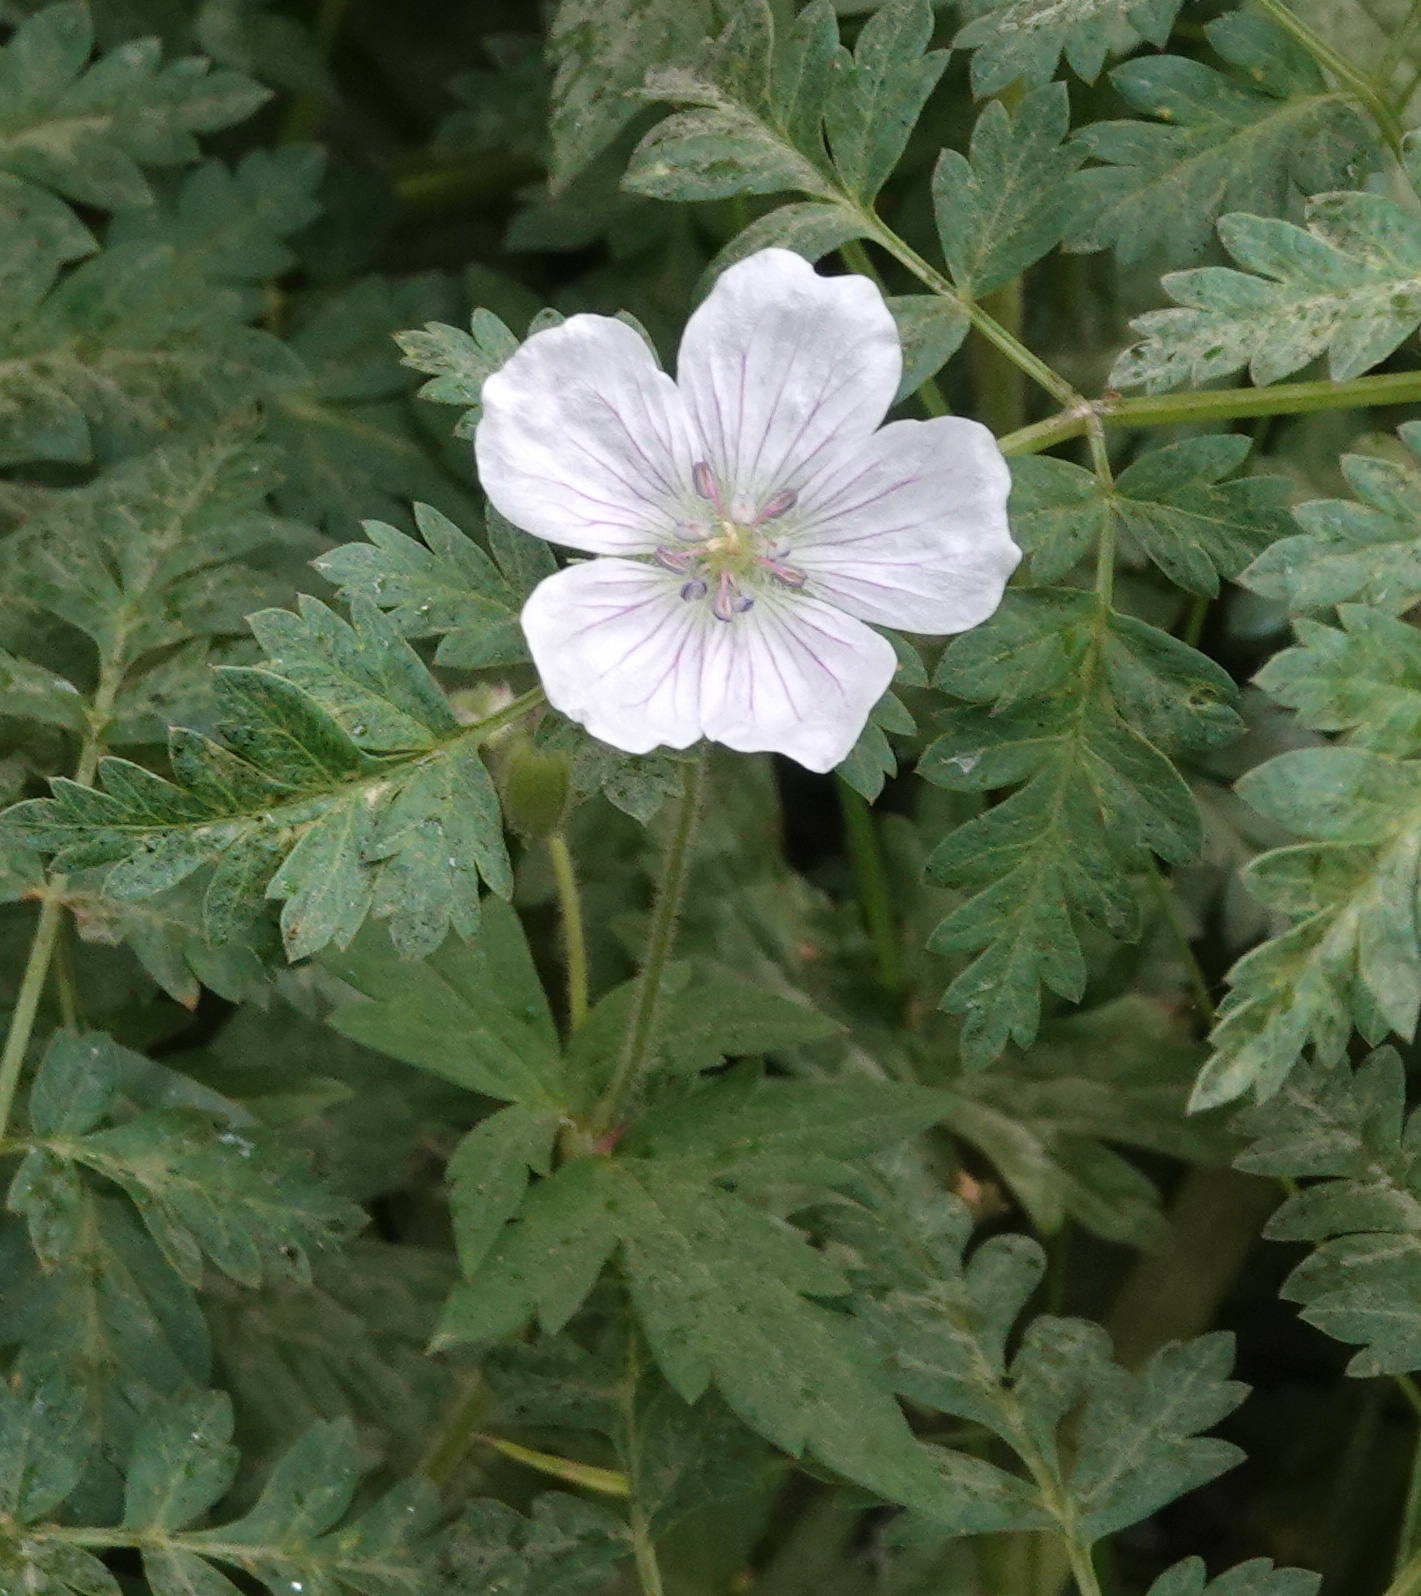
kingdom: Plantae
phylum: Tracheophyta
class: Magnoliopsida
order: Geraniales
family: Geraniaceae
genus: Geranium
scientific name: Geranium richardsonii
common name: Richardson's crane's-bill
